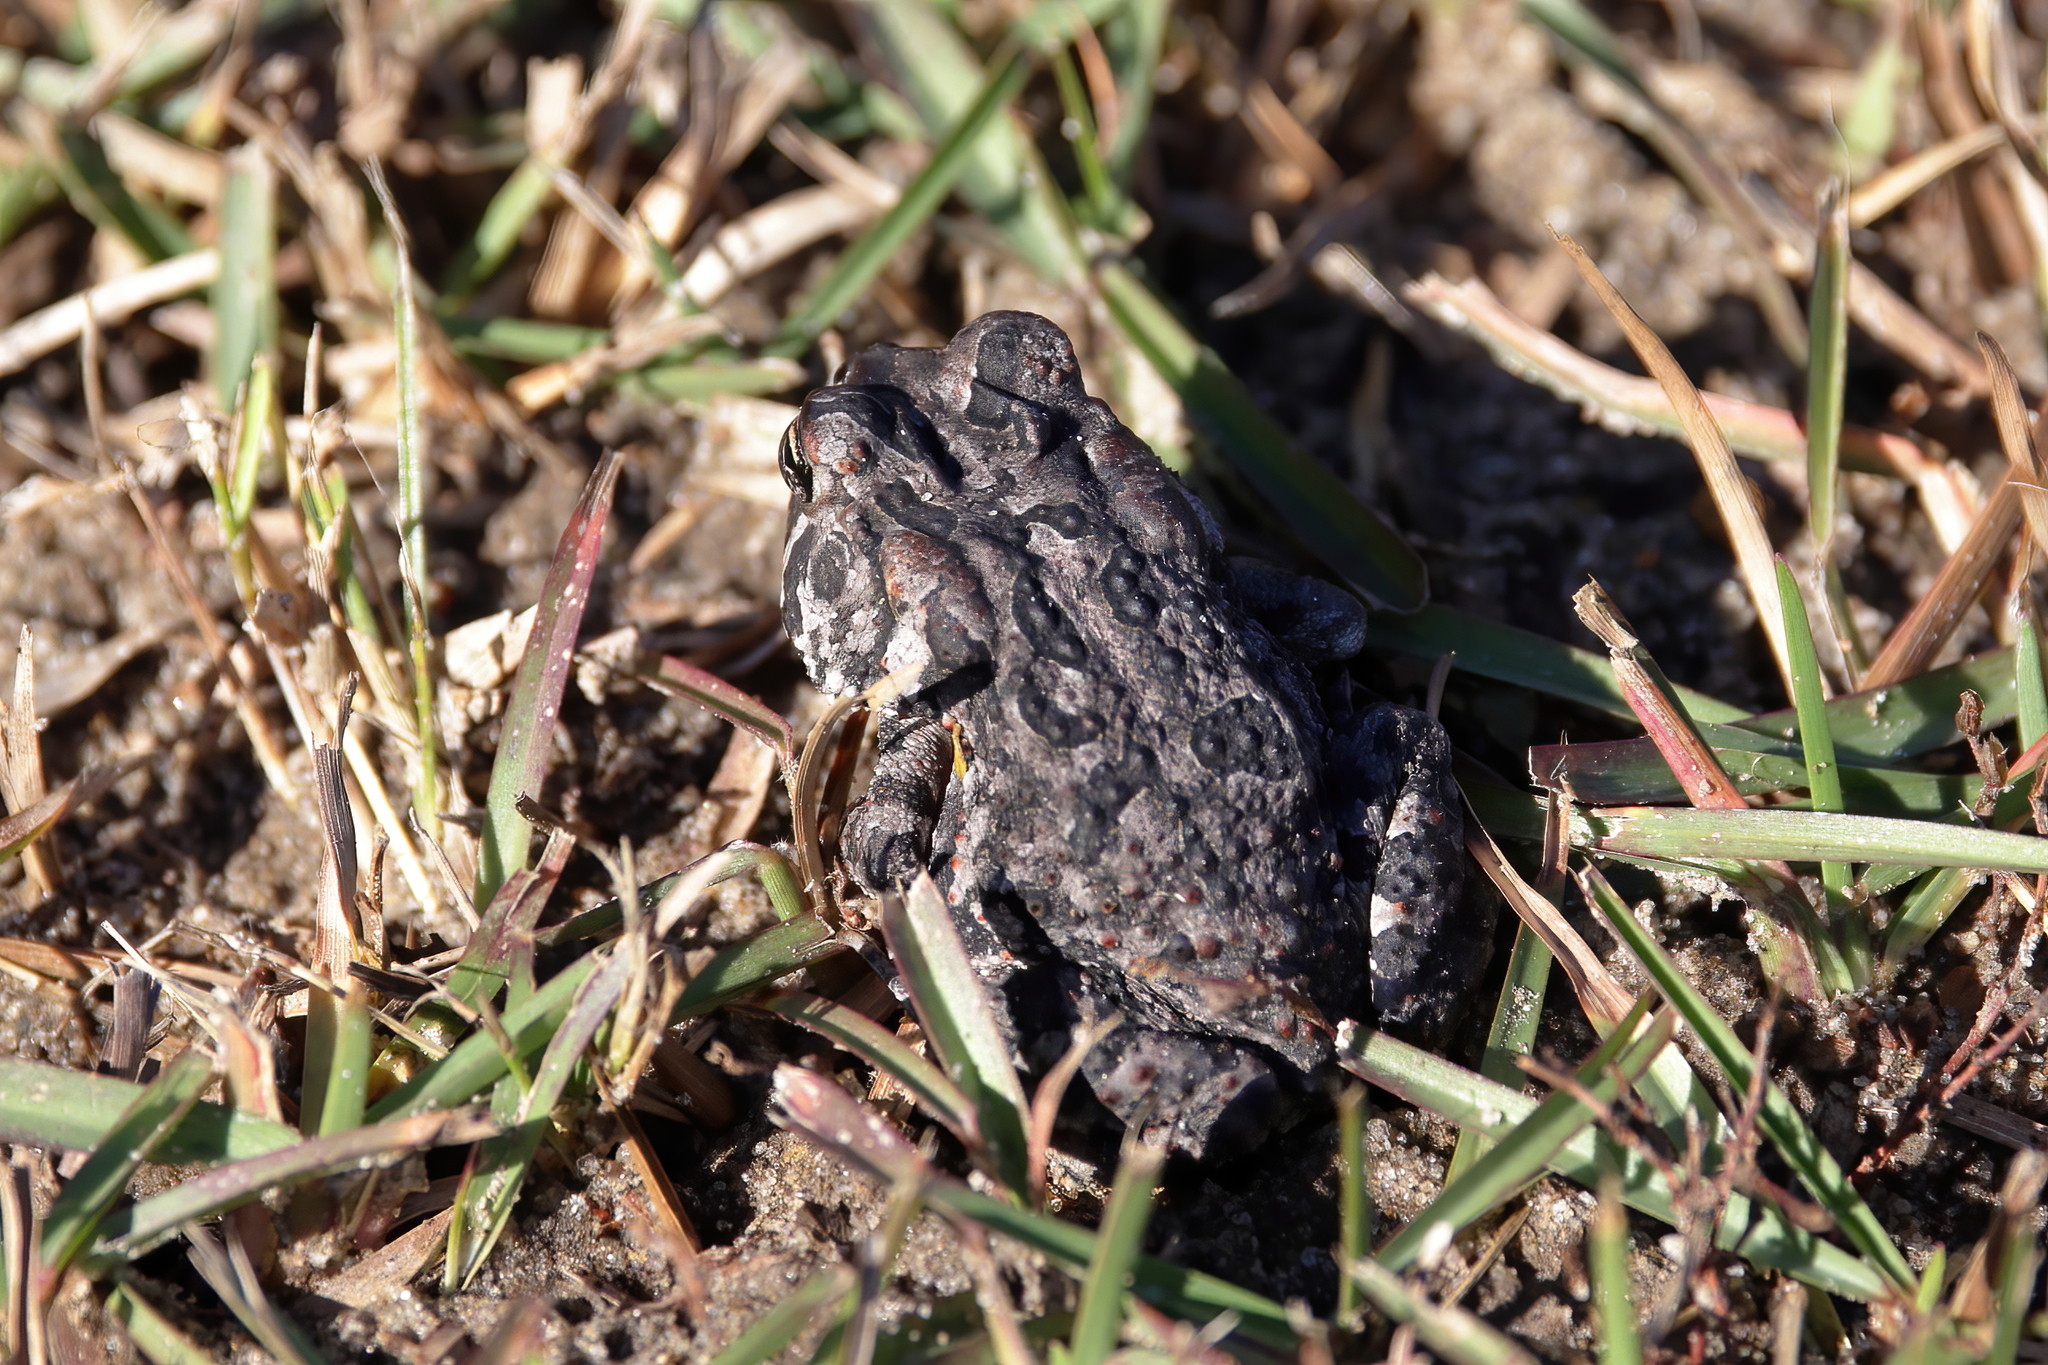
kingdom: Animalia
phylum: Chordata
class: Amphibia
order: Anura
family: Bufonidae
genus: Anaxyrus
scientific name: Anaxyrus terrestris
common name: Southern toad
